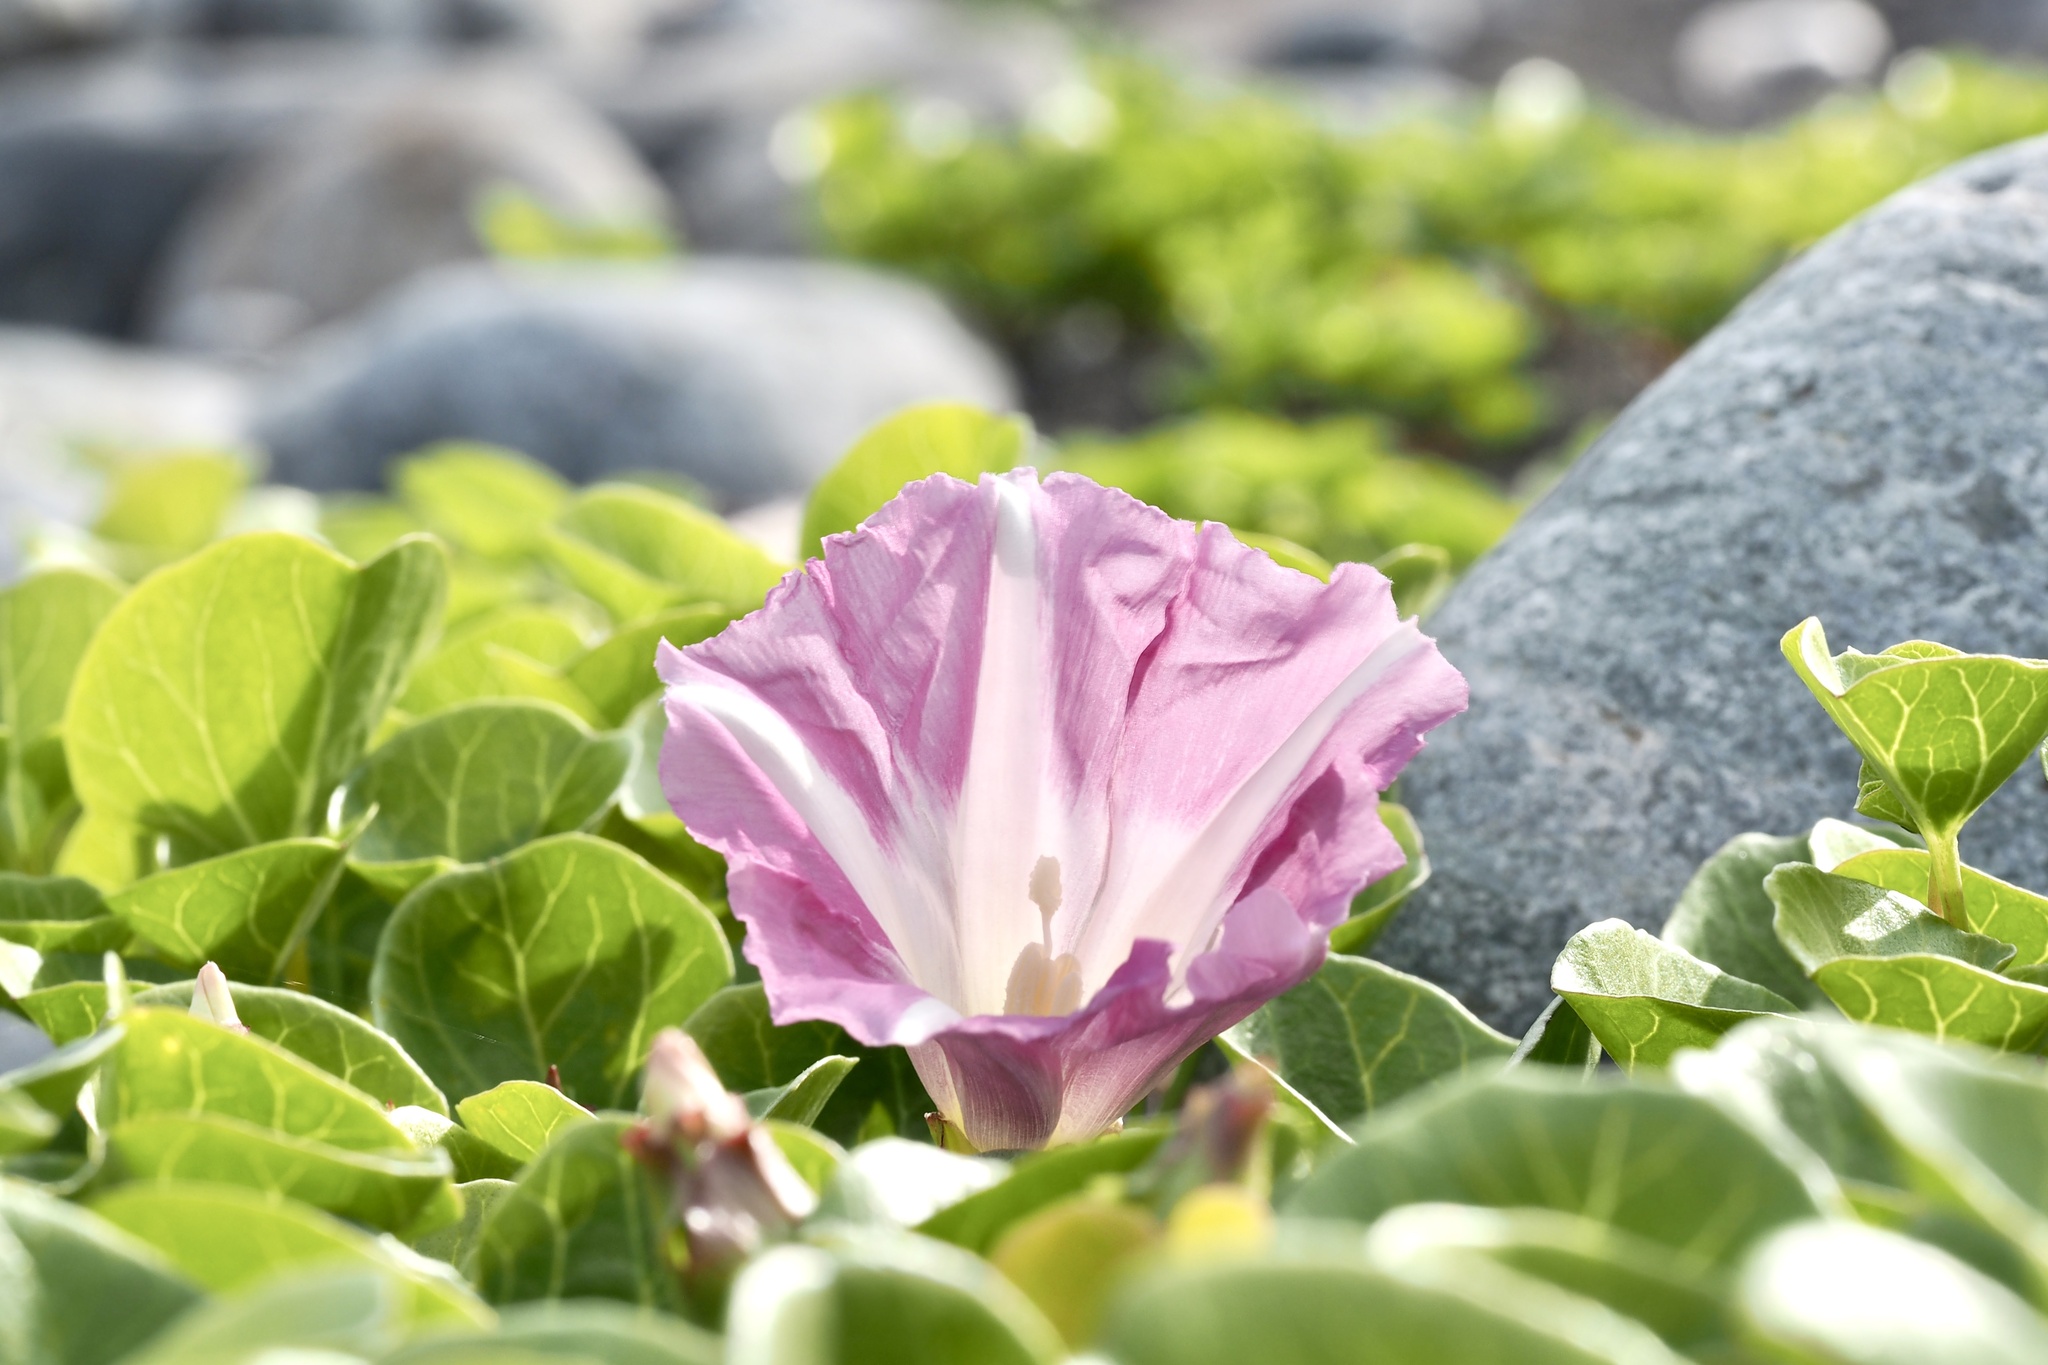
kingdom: Plantae
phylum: Tracheophyta
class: Magnoliopsida
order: Solanales
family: Convolvulaceae
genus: Calystegia
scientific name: Calystegia soldanella
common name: Sea bindweed
